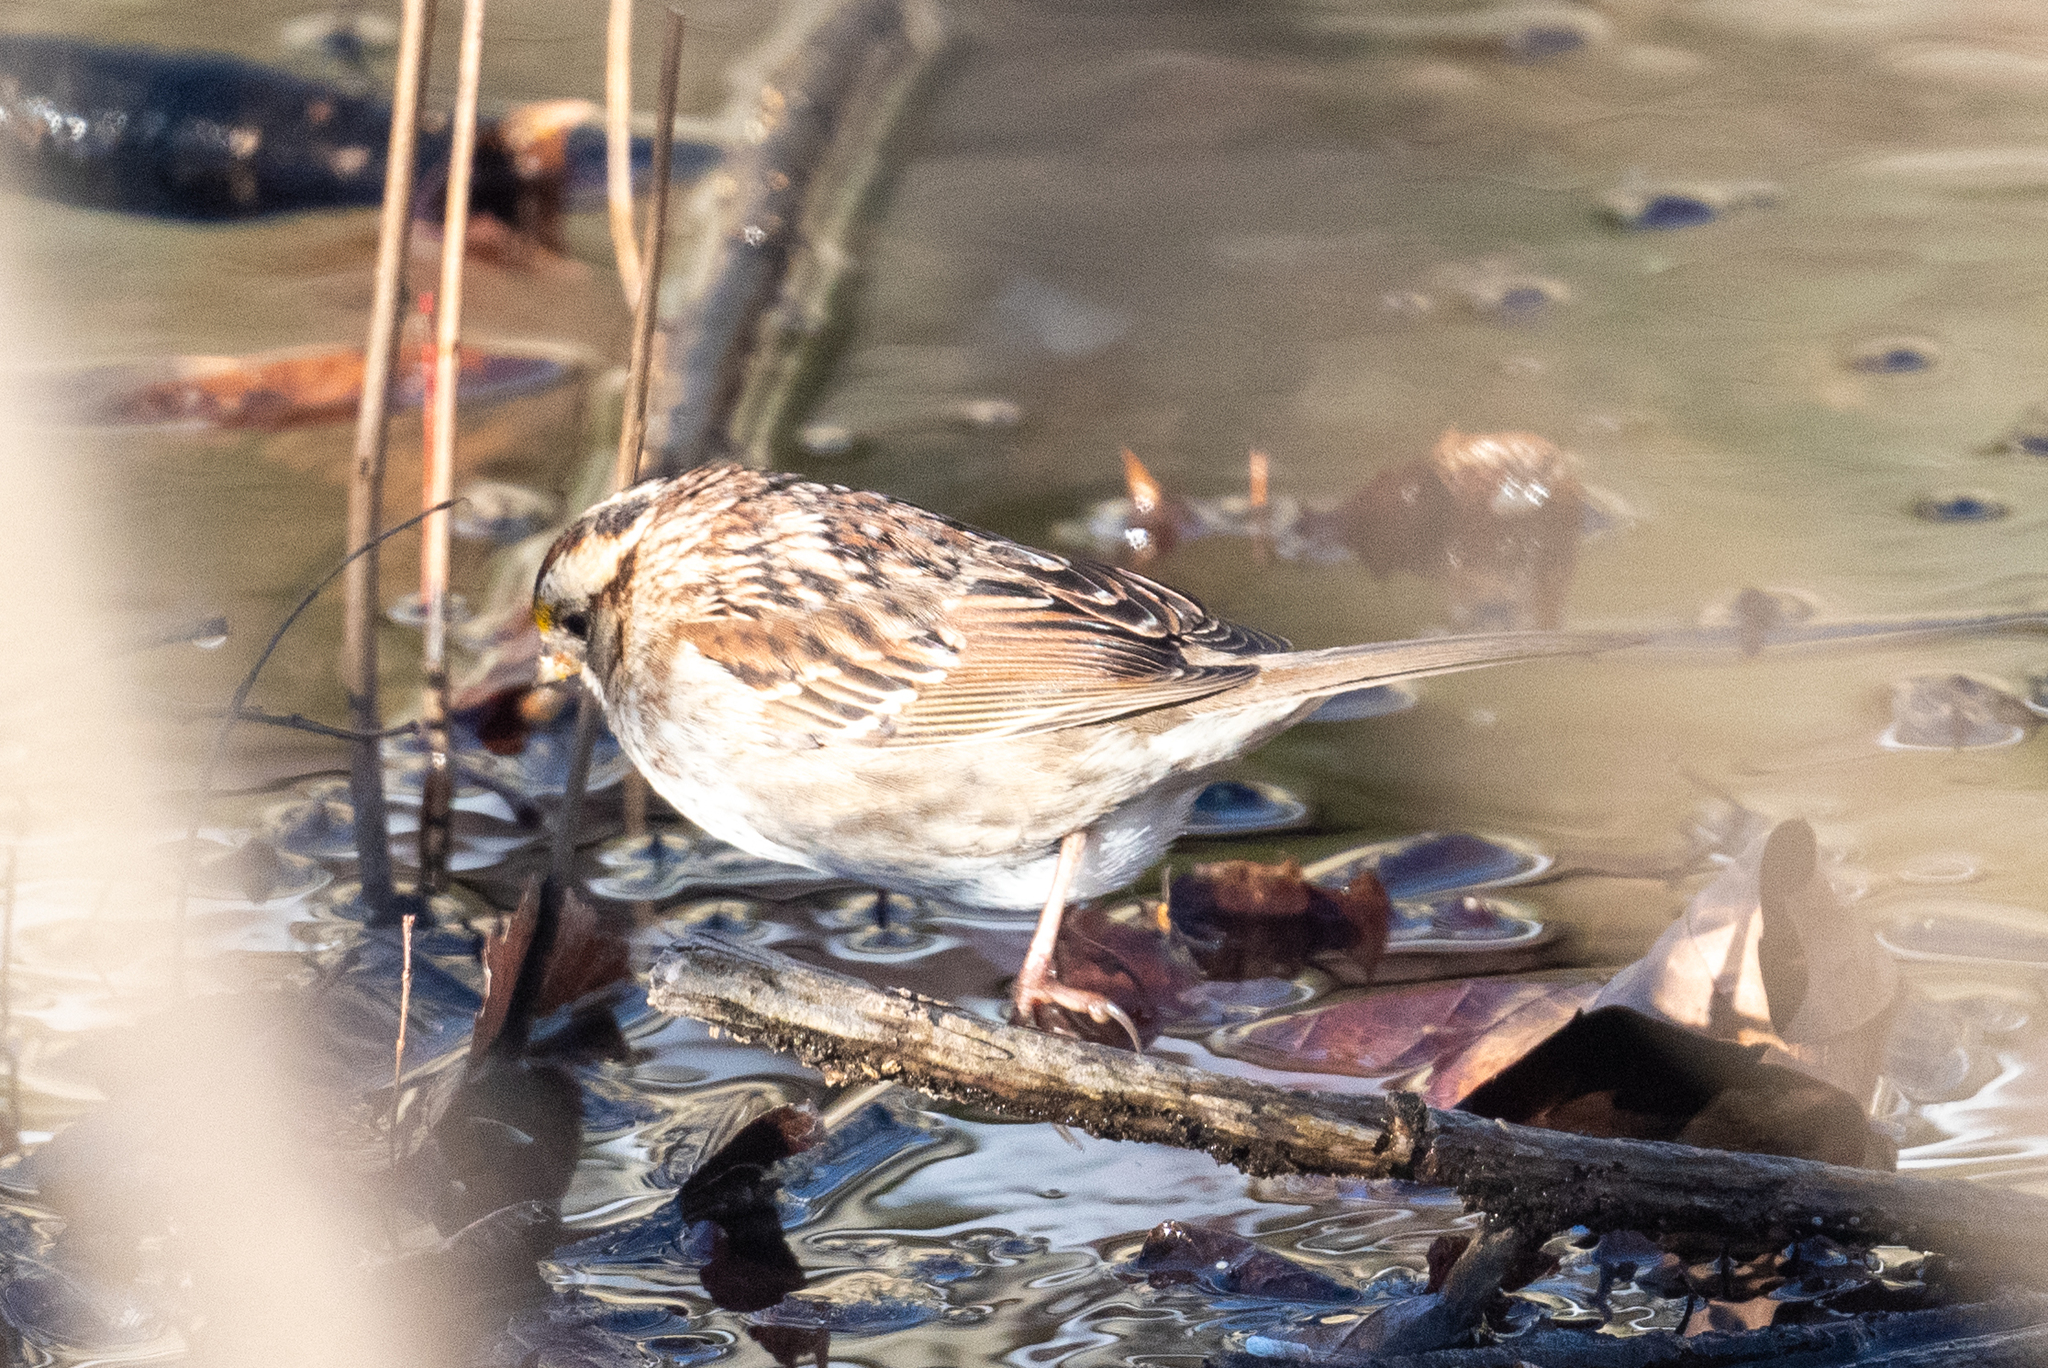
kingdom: Animalia
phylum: Chordata
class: Aves
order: Passeriformes
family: Passerellidae
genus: Zonotrichia
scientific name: Zonotrichia albicollis
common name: White-throated sparrow
